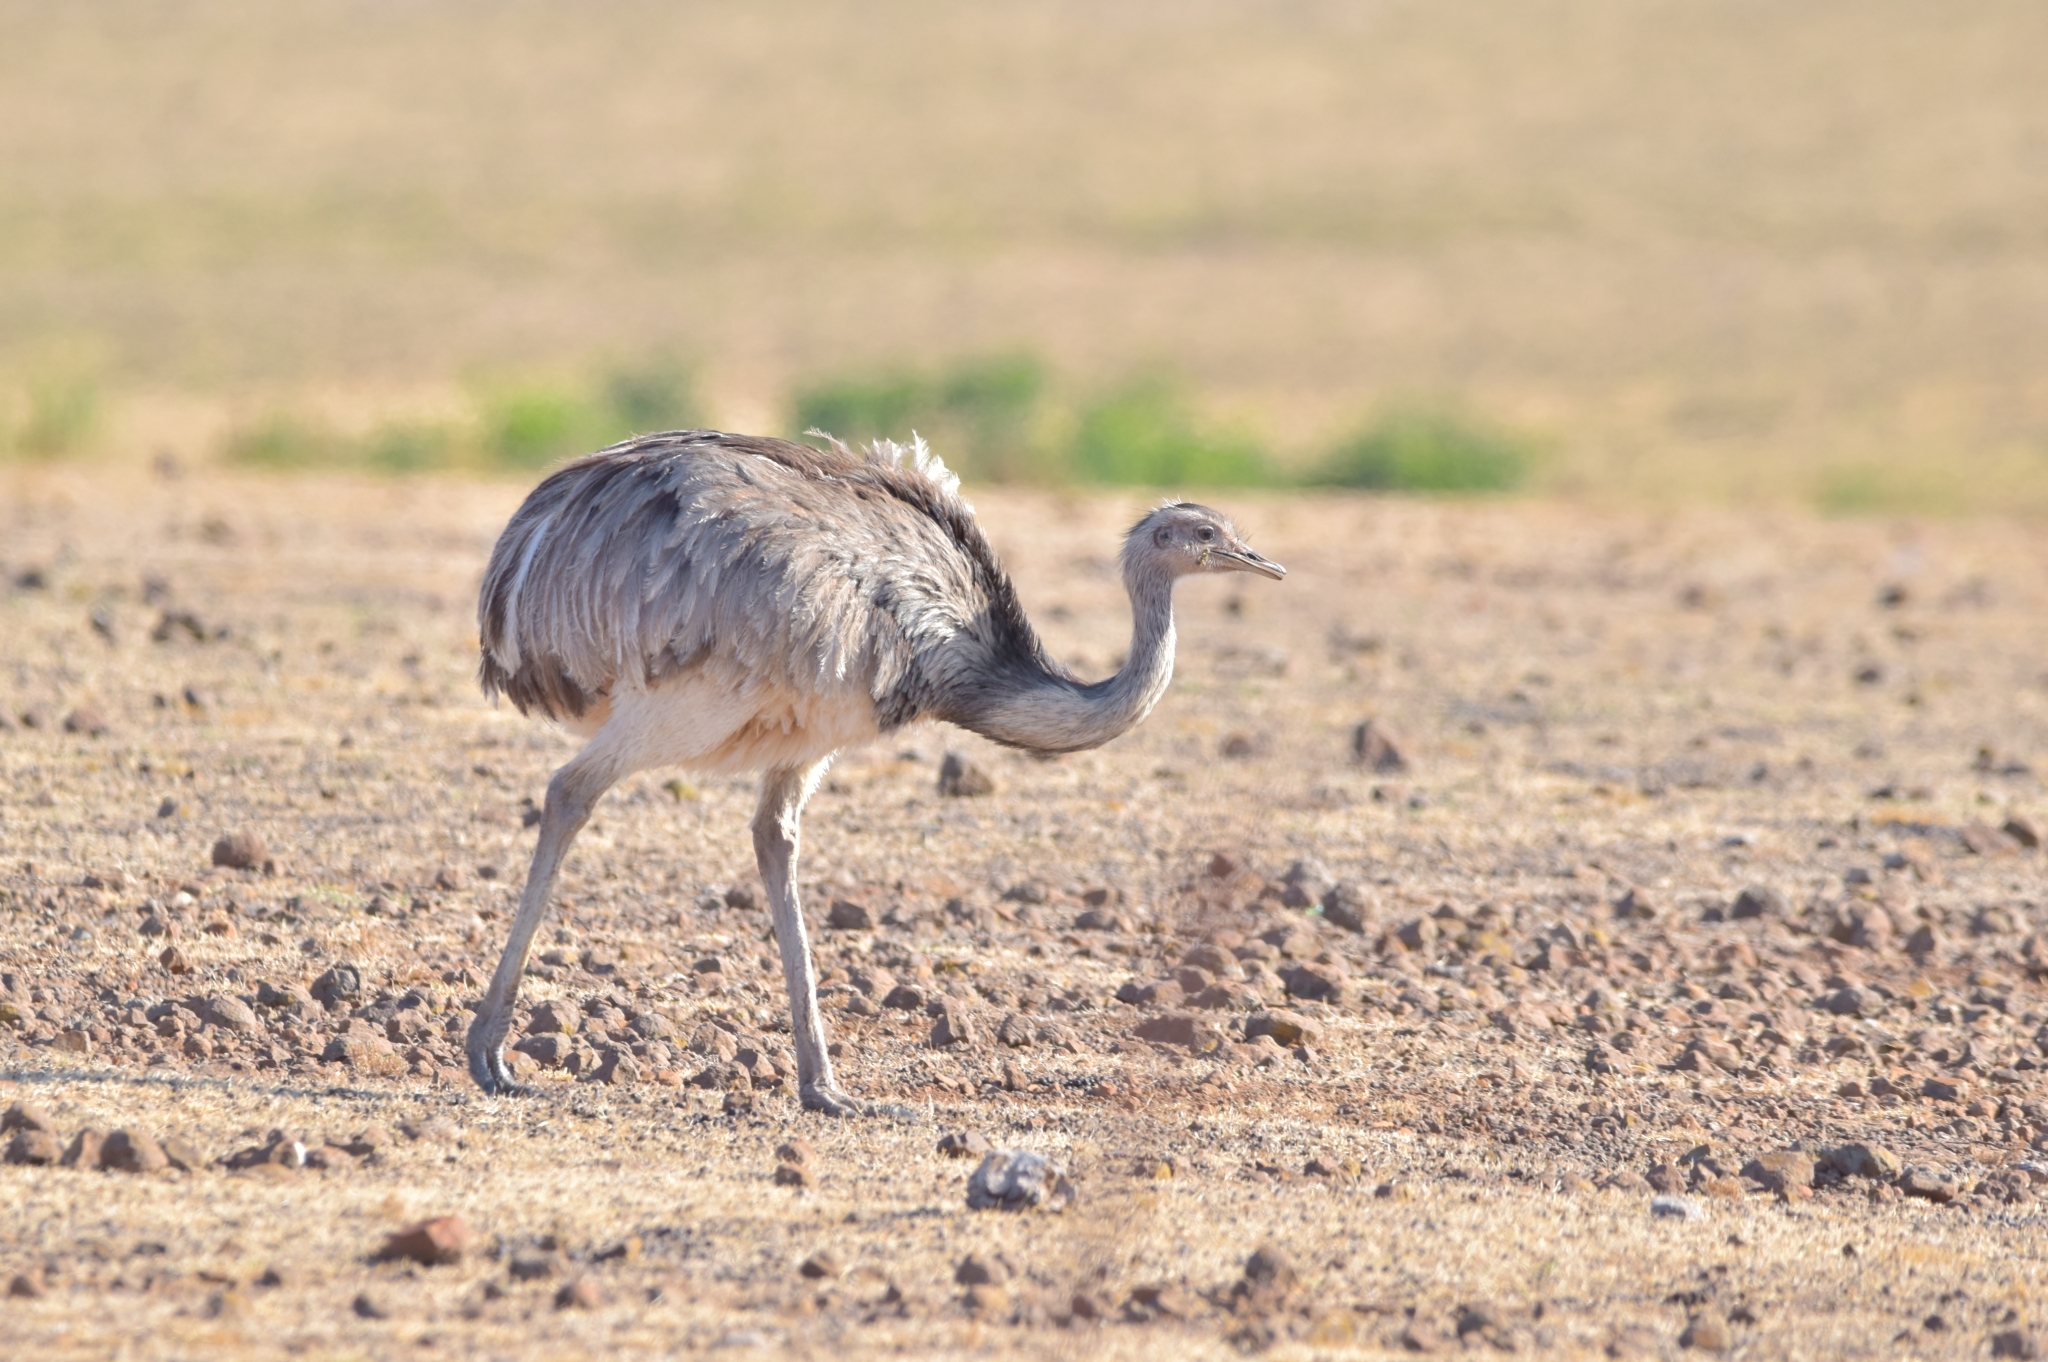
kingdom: Animalia
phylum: Chordata
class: Aves
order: Rheiformes
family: Rheidae
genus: Rhea
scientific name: Rhea americana
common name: Greater rhea
